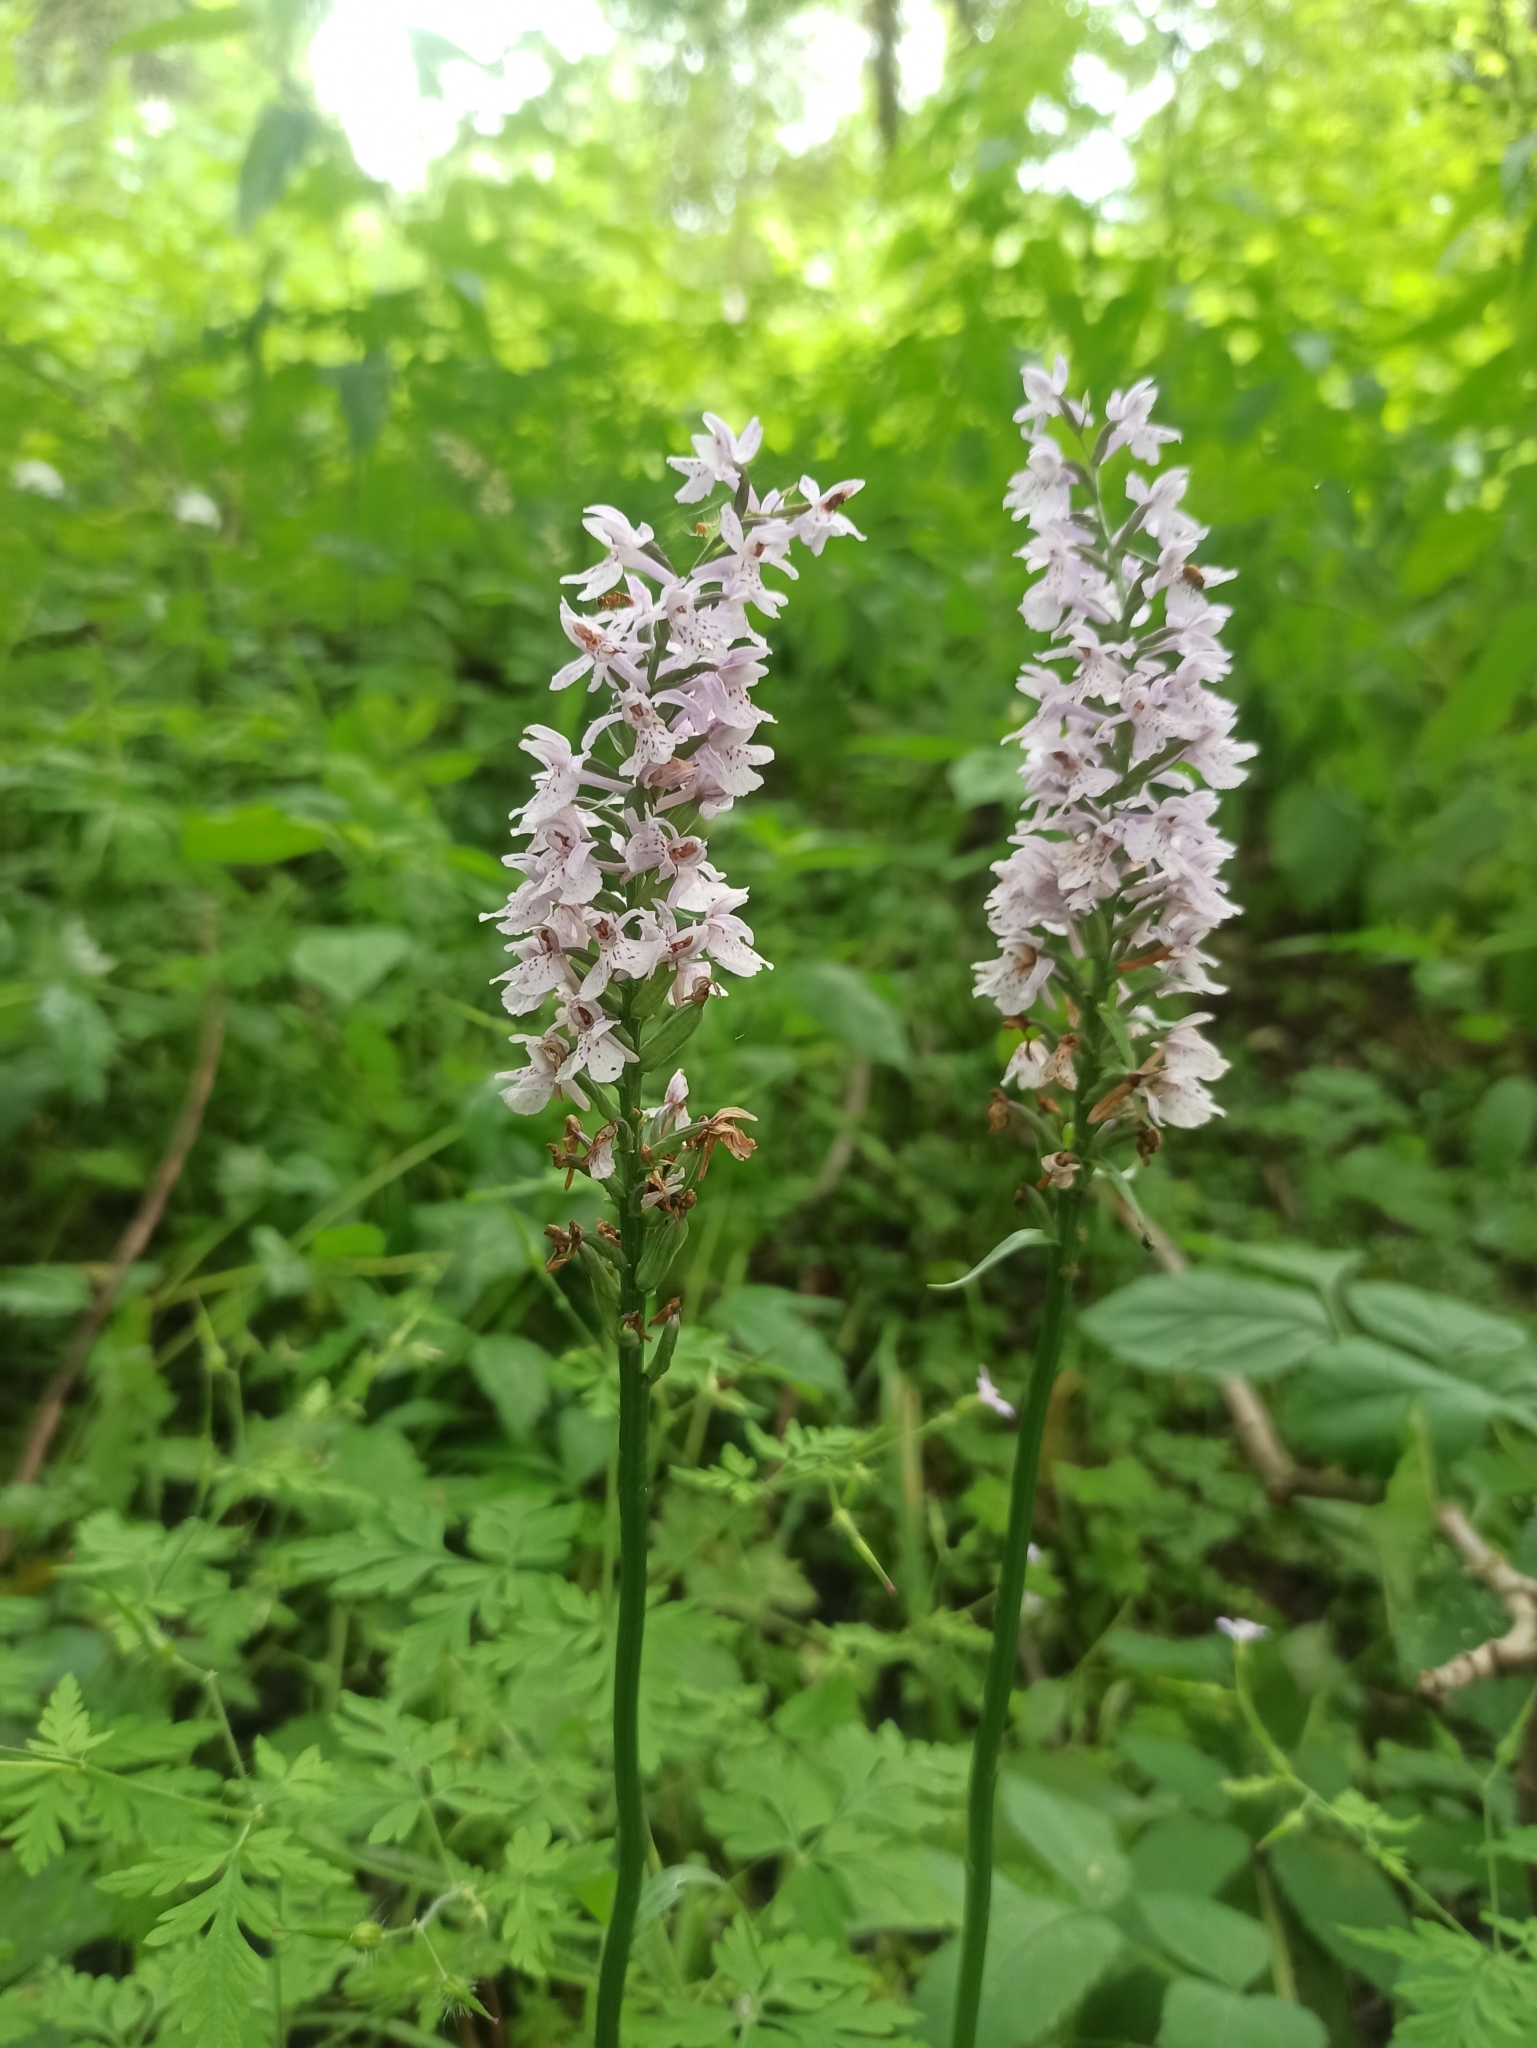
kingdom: Plantae
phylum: Tracheophyta
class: Liliopsida
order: Asparagales
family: Orchidaceae
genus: Dactylorhiza
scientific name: Dactylorhiza maculata
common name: Heath spotted-orchid
